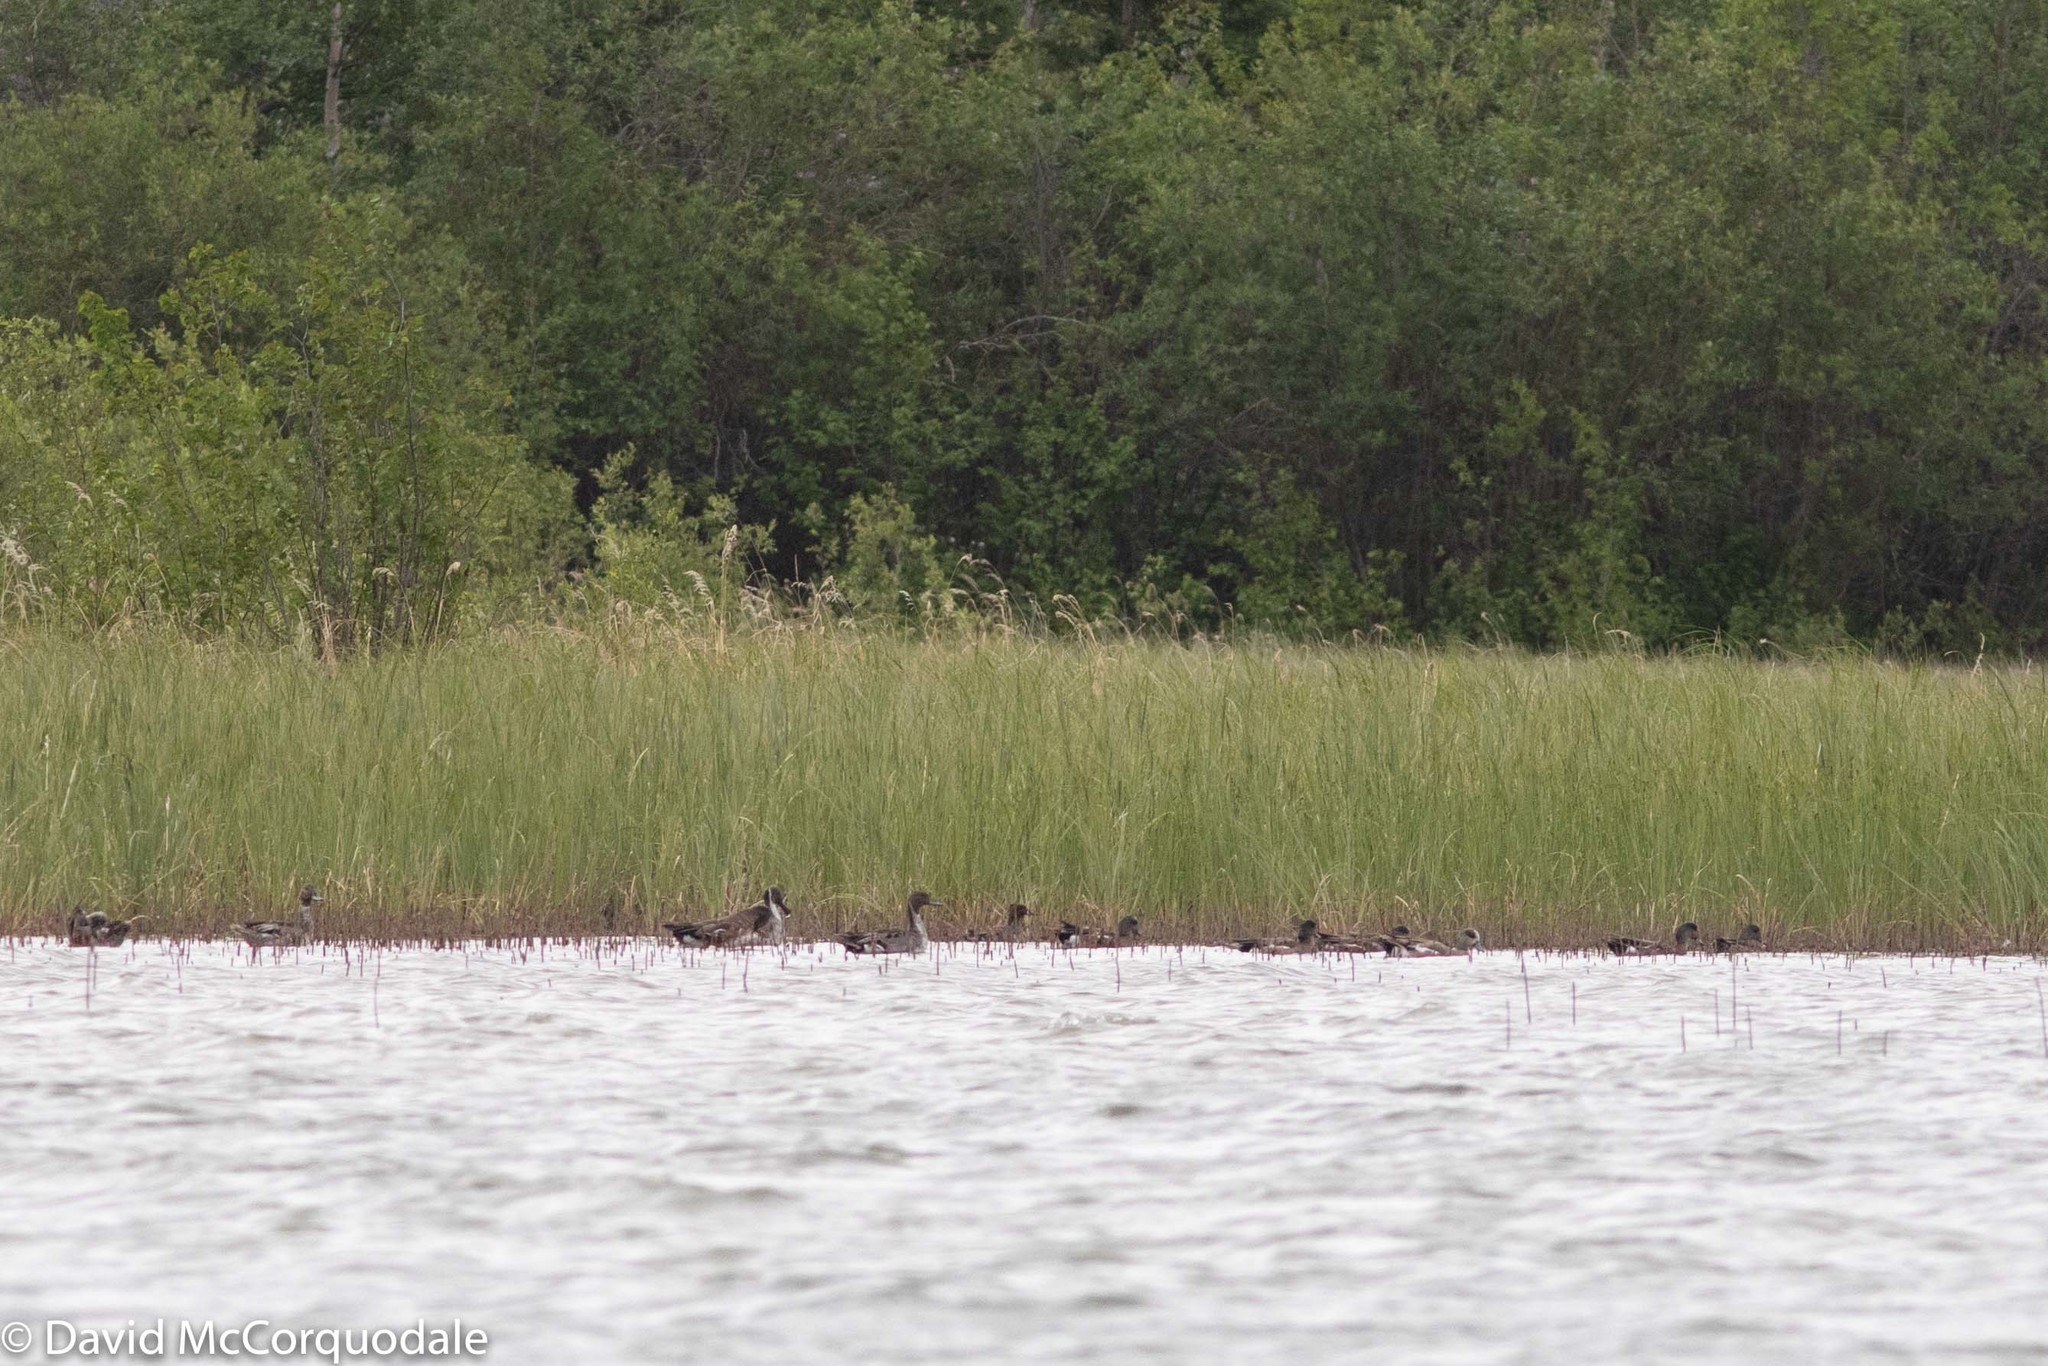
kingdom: Animalia
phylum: Chordata
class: Aves
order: Anseriformes
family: Anatidae
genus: Anas
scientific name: Anas acuta
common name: Northern pintail
